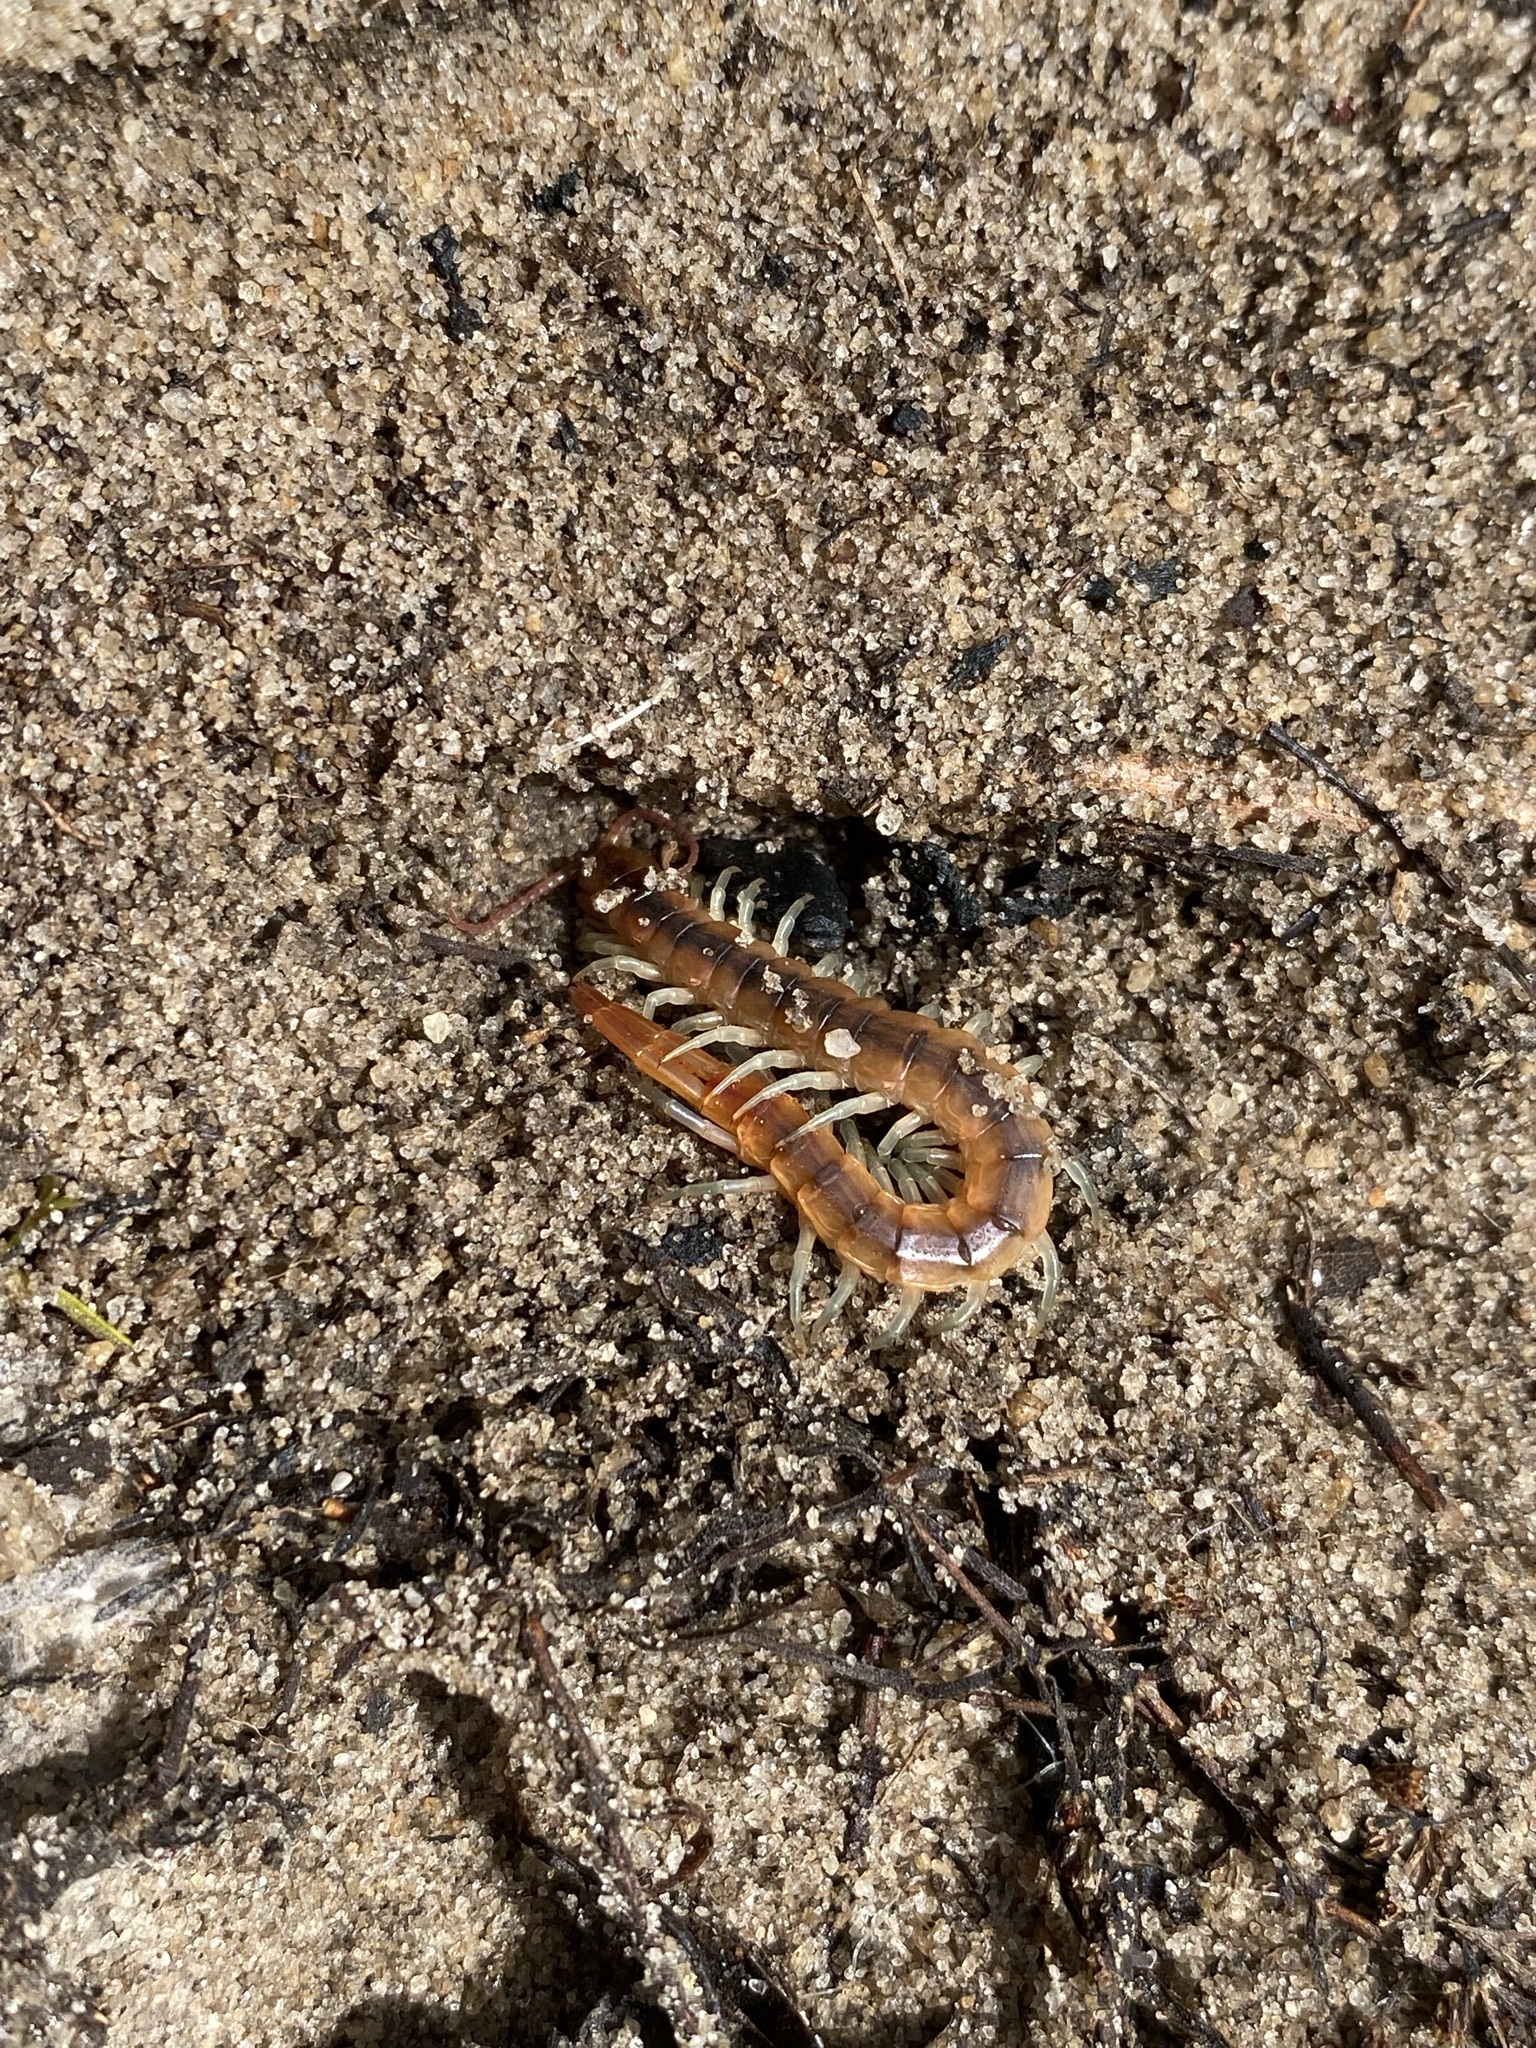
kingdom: Animalia
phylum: Arthropoda
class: Chilopoda
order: Scolopendromorpha
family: Scolopendridae
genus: Scolopendra
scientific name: Scolopendra viridis
